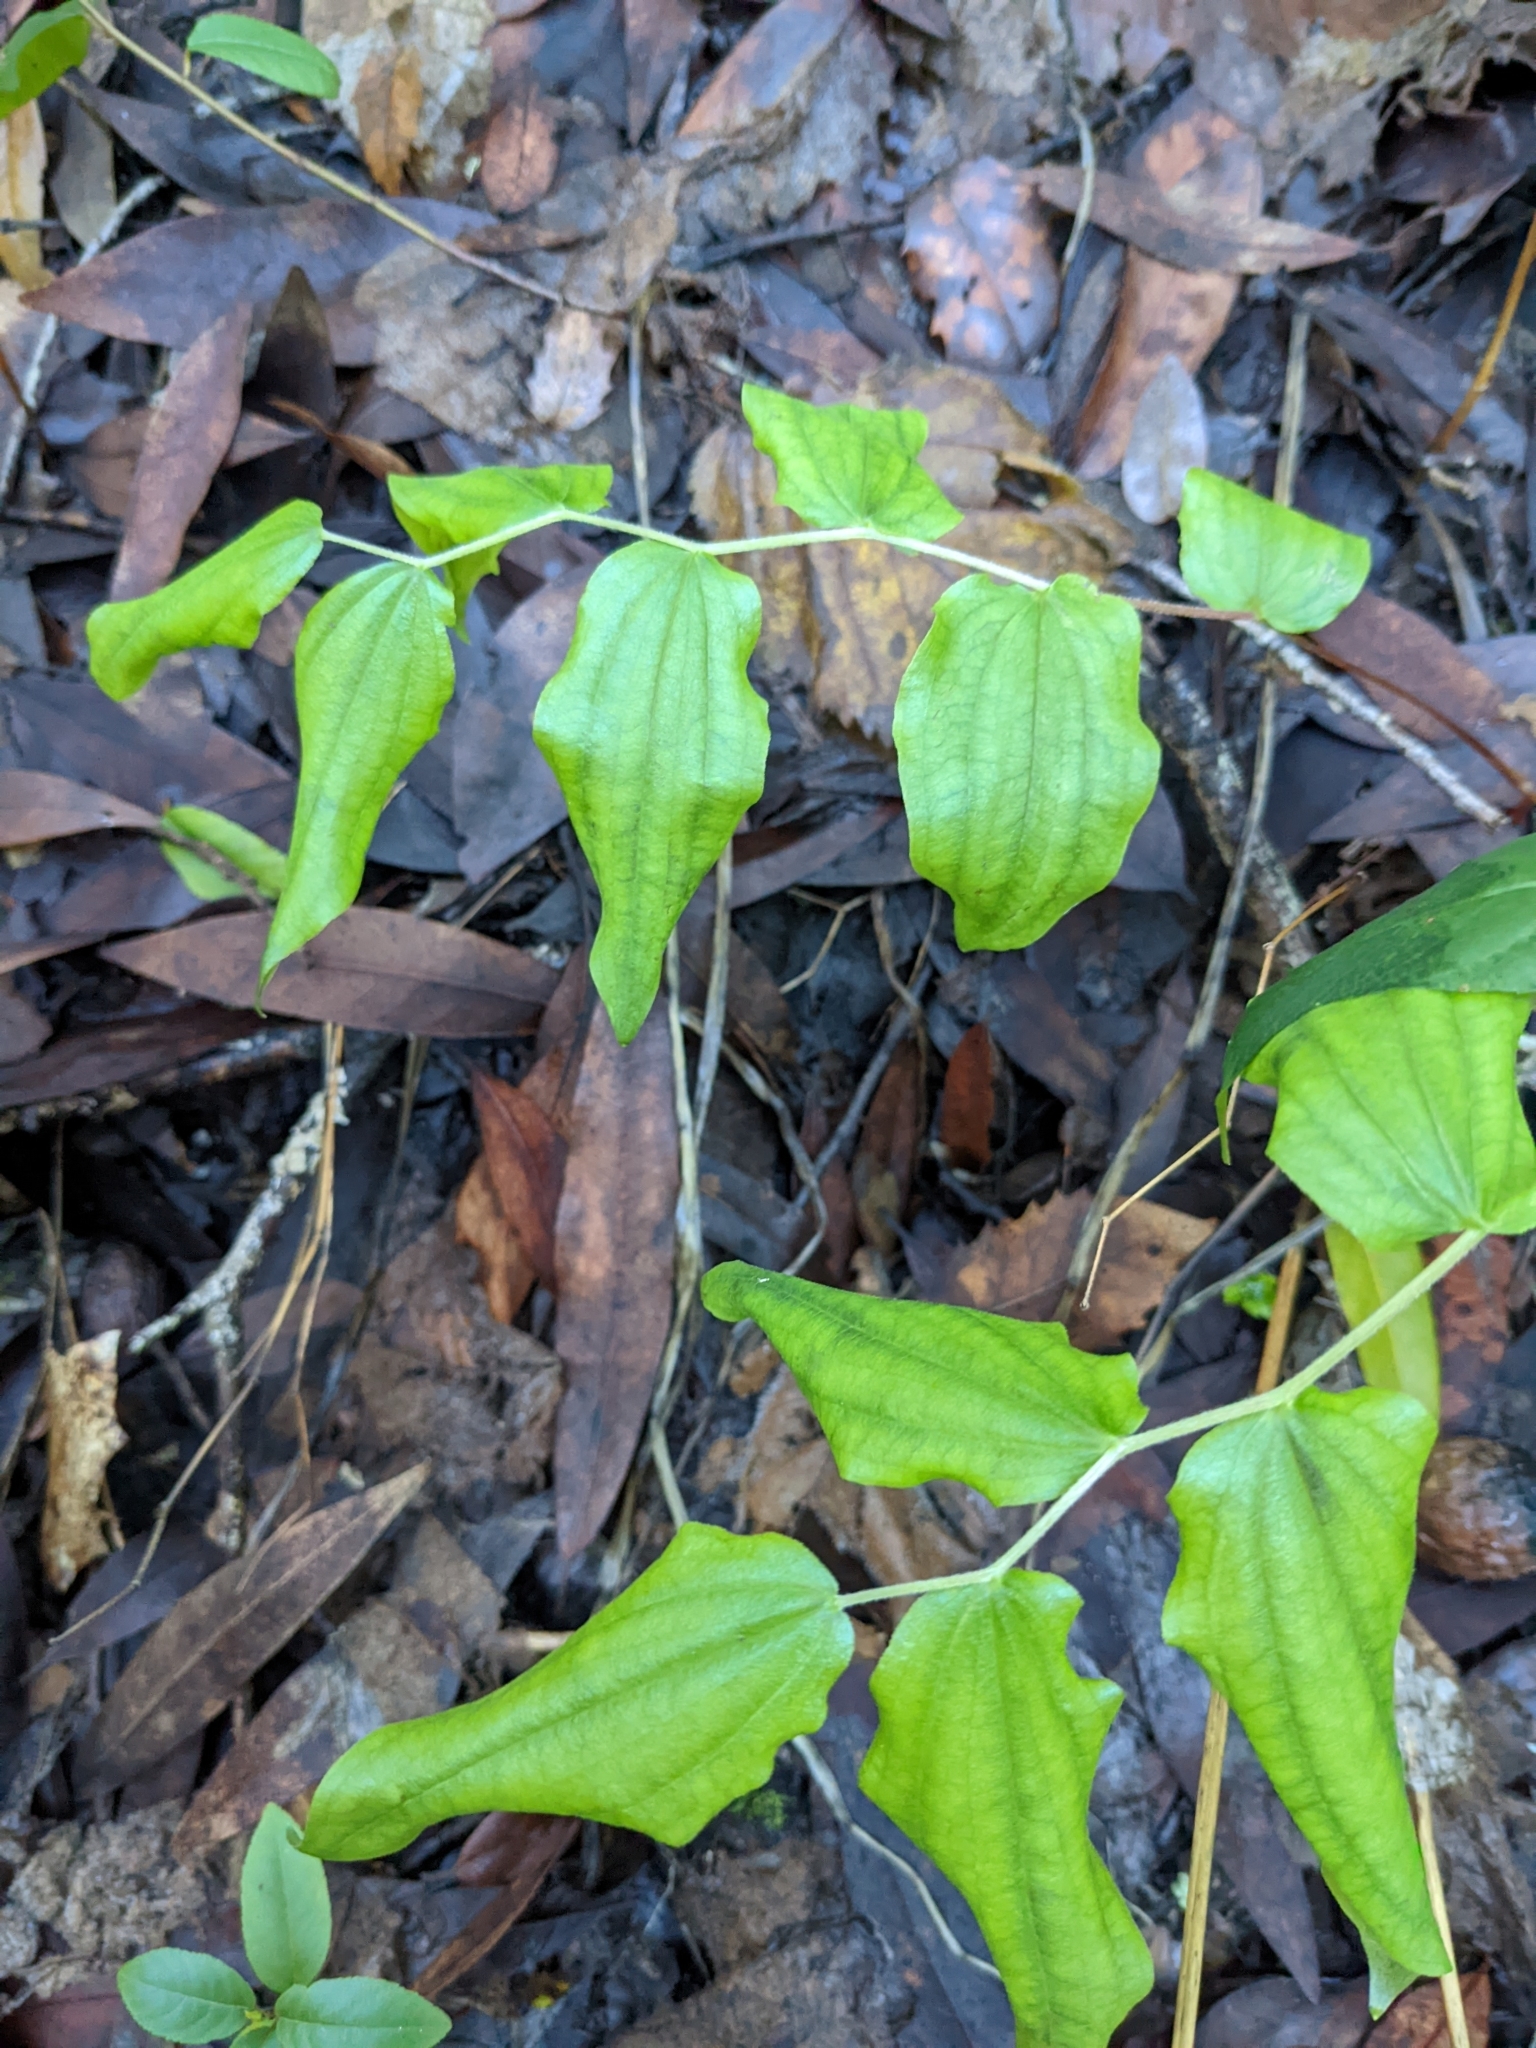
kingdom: Plantae
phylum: Tracheophyta
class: Liliopsida
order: Liliales
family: Liliaceae
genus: Prosartes
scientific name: Prosartes hookeri
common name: Fairy-bells
